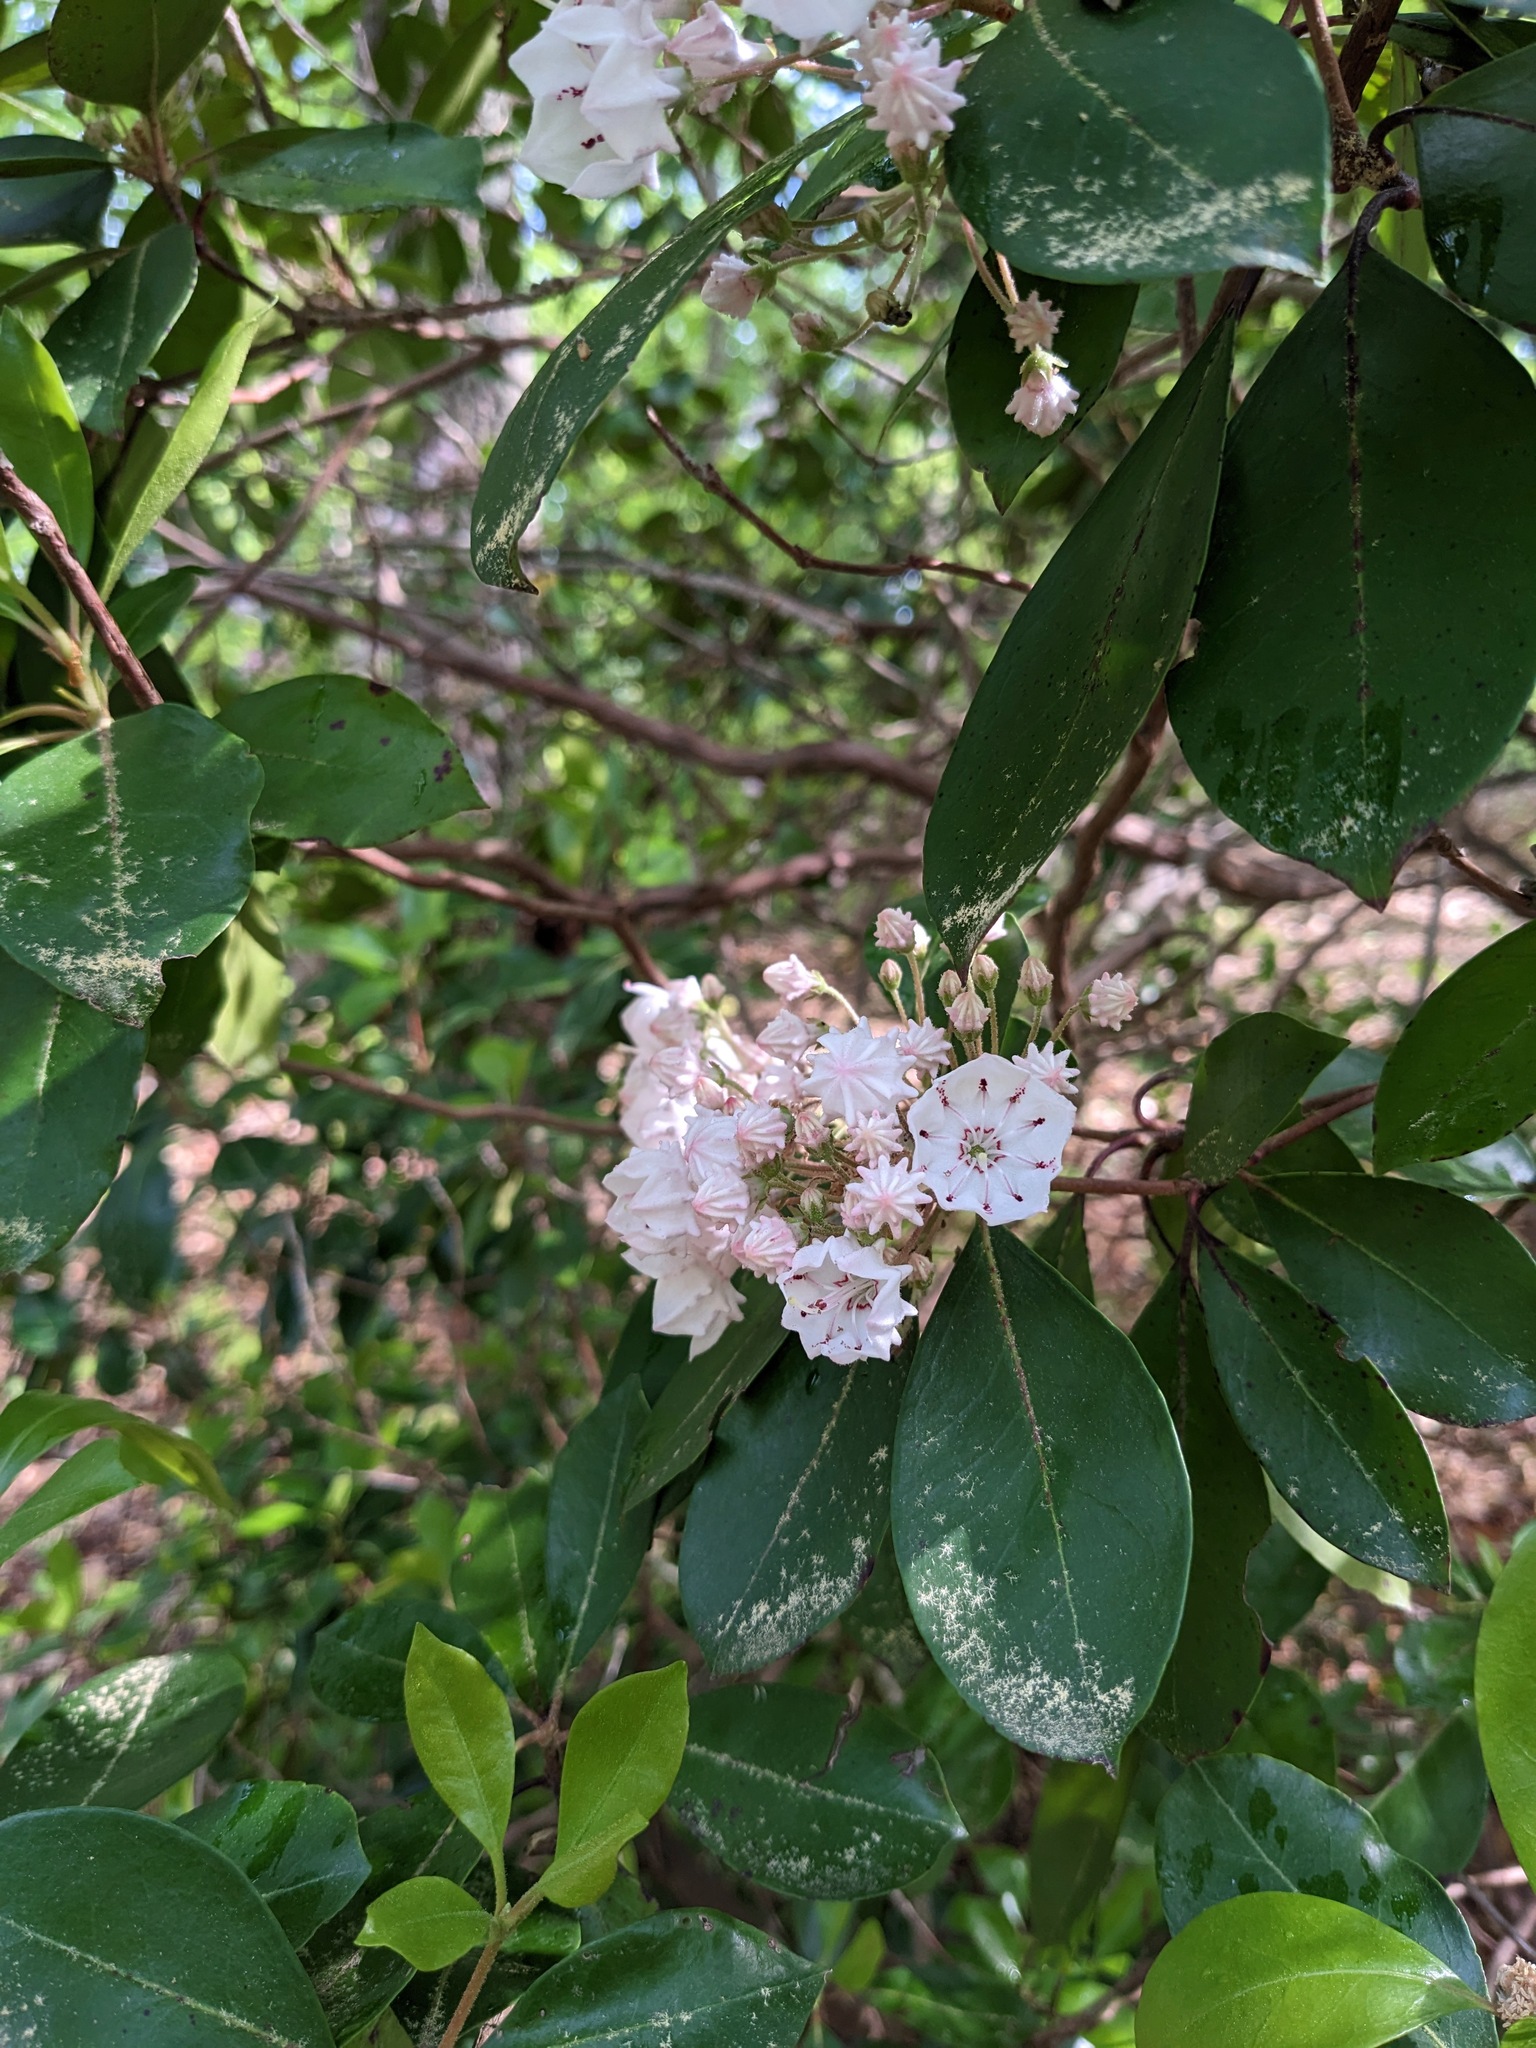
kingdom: Plantae
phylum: Tracheophyta
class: Magnoliopsida
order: Ericales
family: Ericaceae
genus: Kalmia
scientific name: Kalmia latifolia
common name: Mountain-laurel
